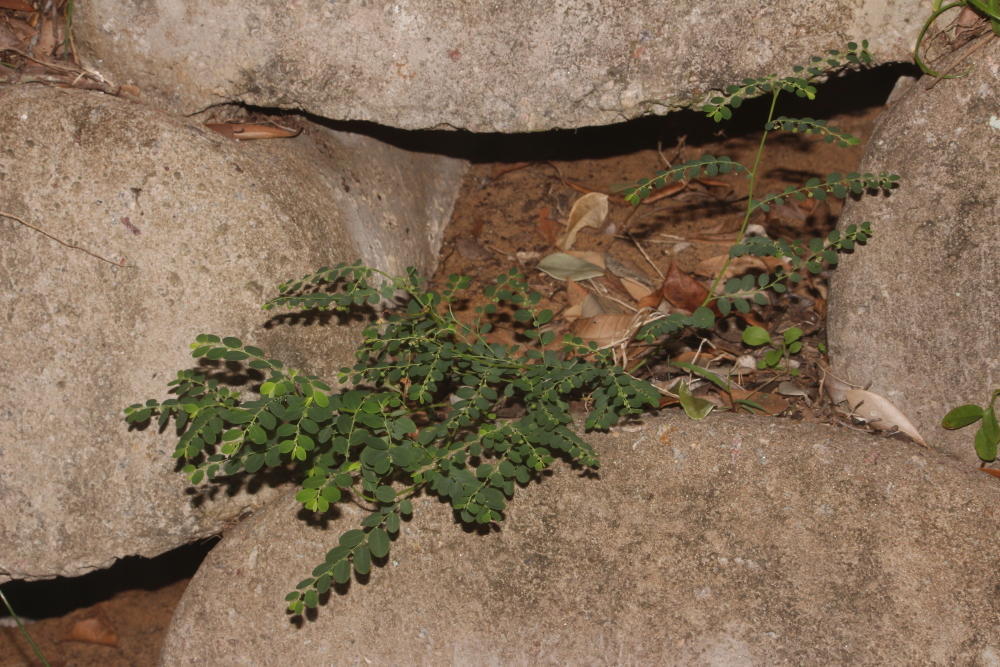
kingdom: Plantae
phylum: Tracheophyta
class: Magnoliopsida
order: Malpighiales
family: Phyllanthaceae
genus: Phyllanthus
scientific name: Phyllanthus loandensis
